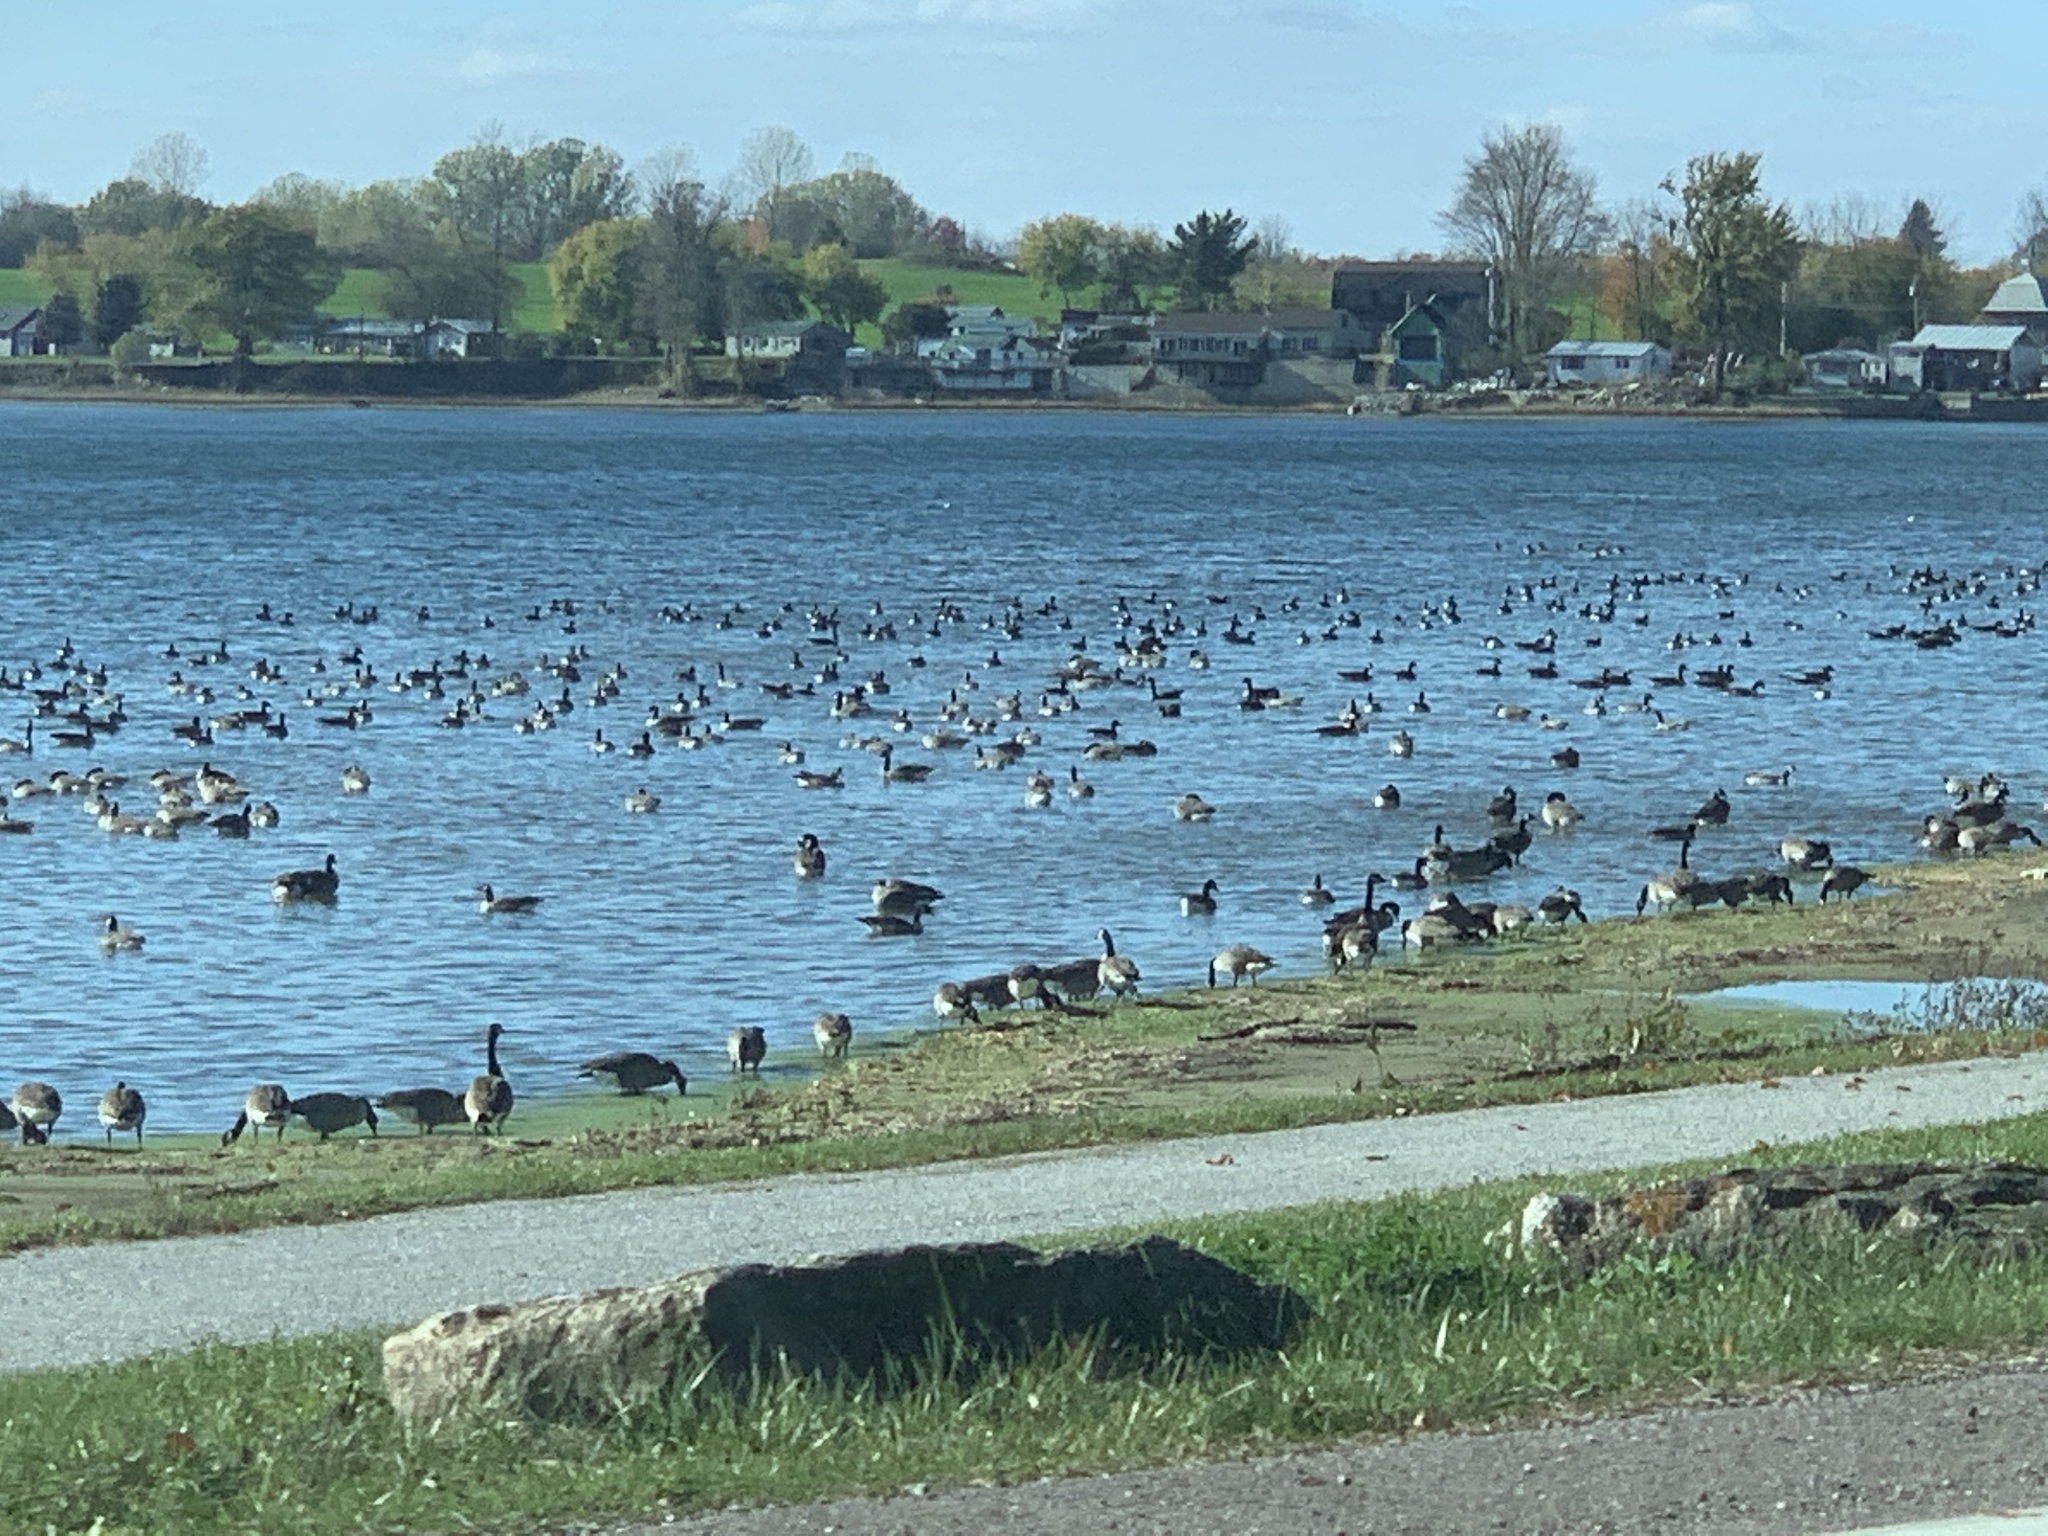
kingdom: Animalia
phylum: Chordata
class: Aves
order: Anseriformes
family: Anatidae
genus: Branta
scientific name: Branta canadensis
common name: Canada goose
